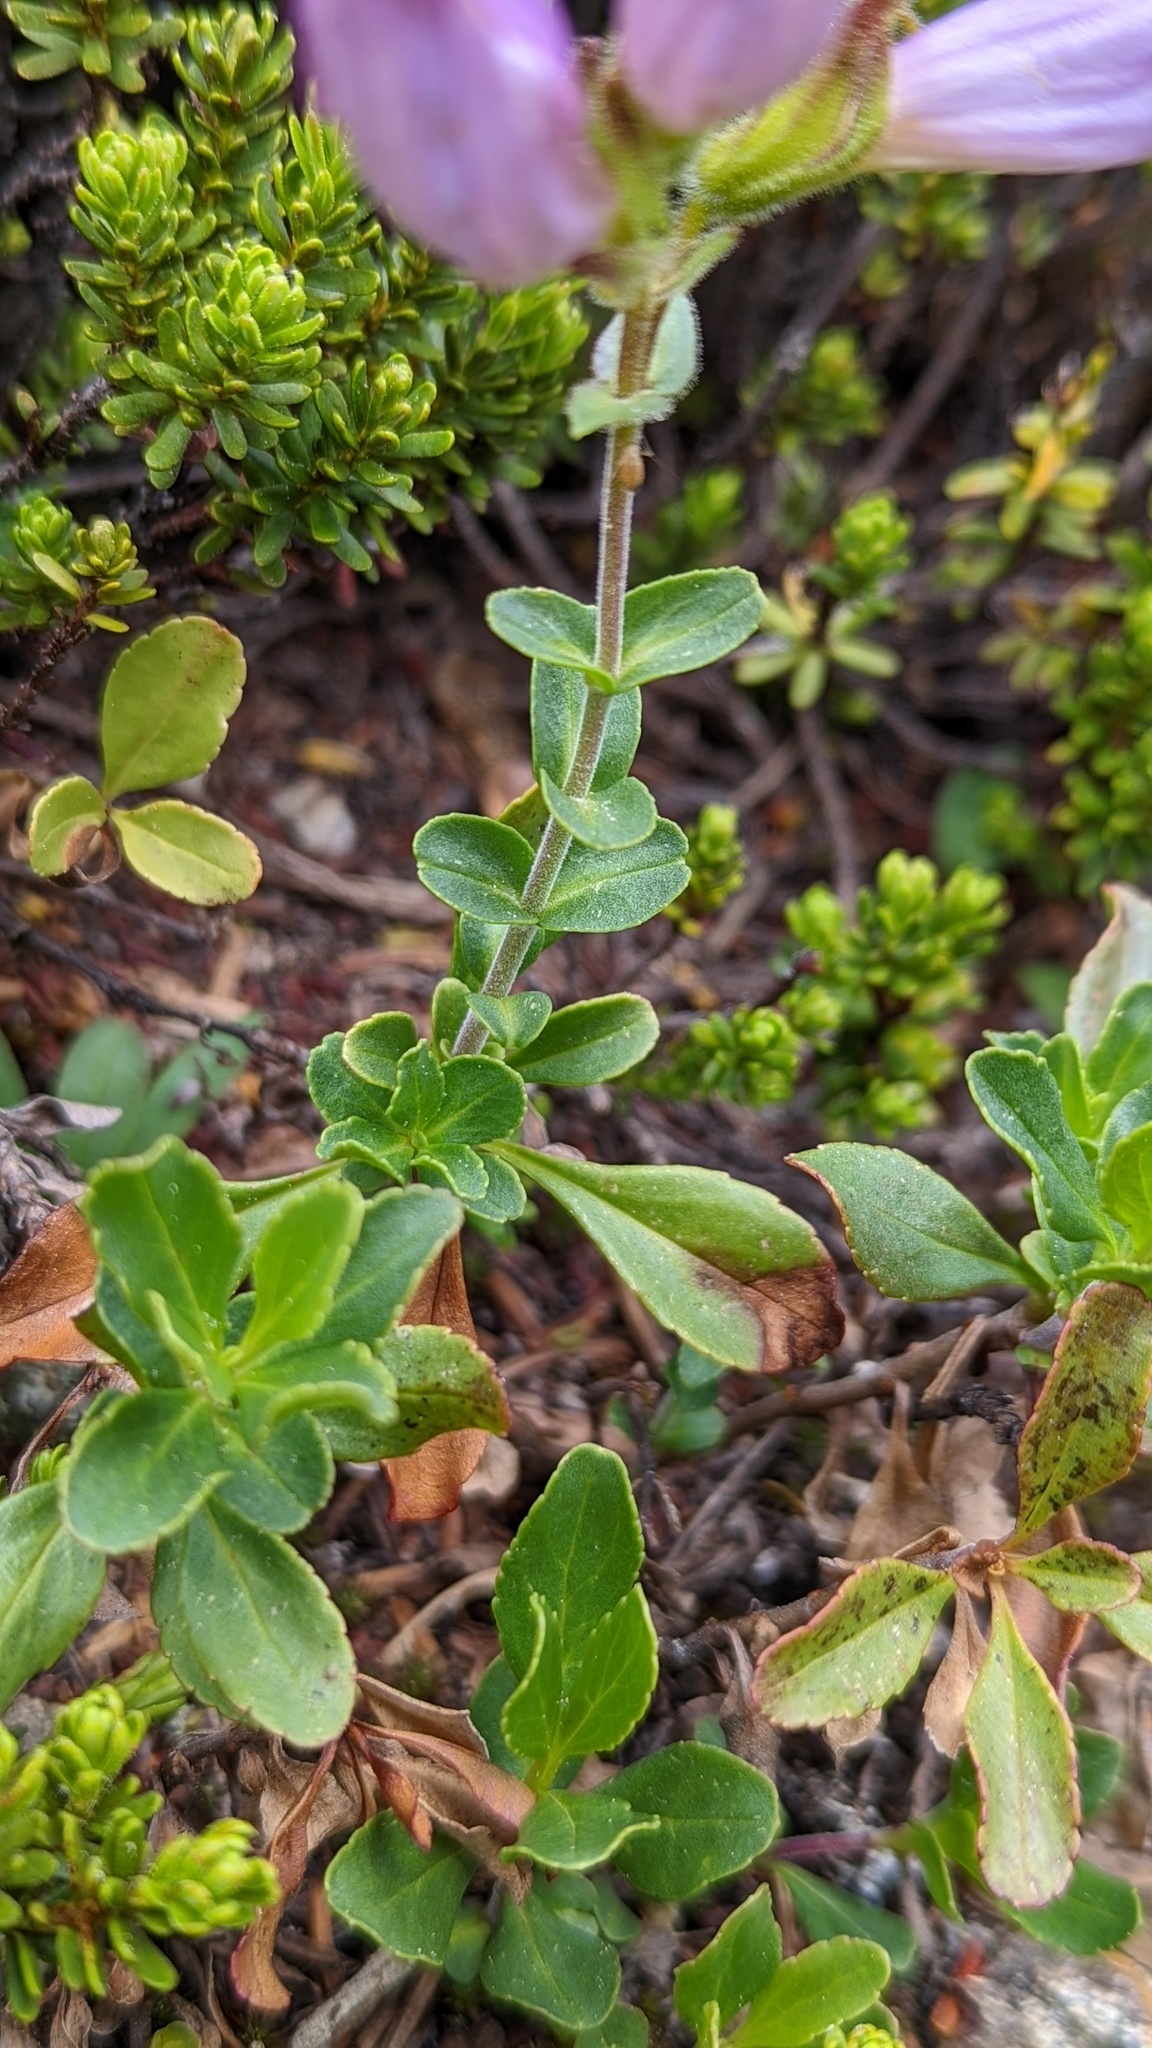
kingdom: Plantae
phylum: Tracheophyta
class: Magnoliopsida
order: Lamiales
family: Plantaginaceae
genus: Penstemon
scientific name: Penstemon ellipticus
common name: Alpine beardtongue
